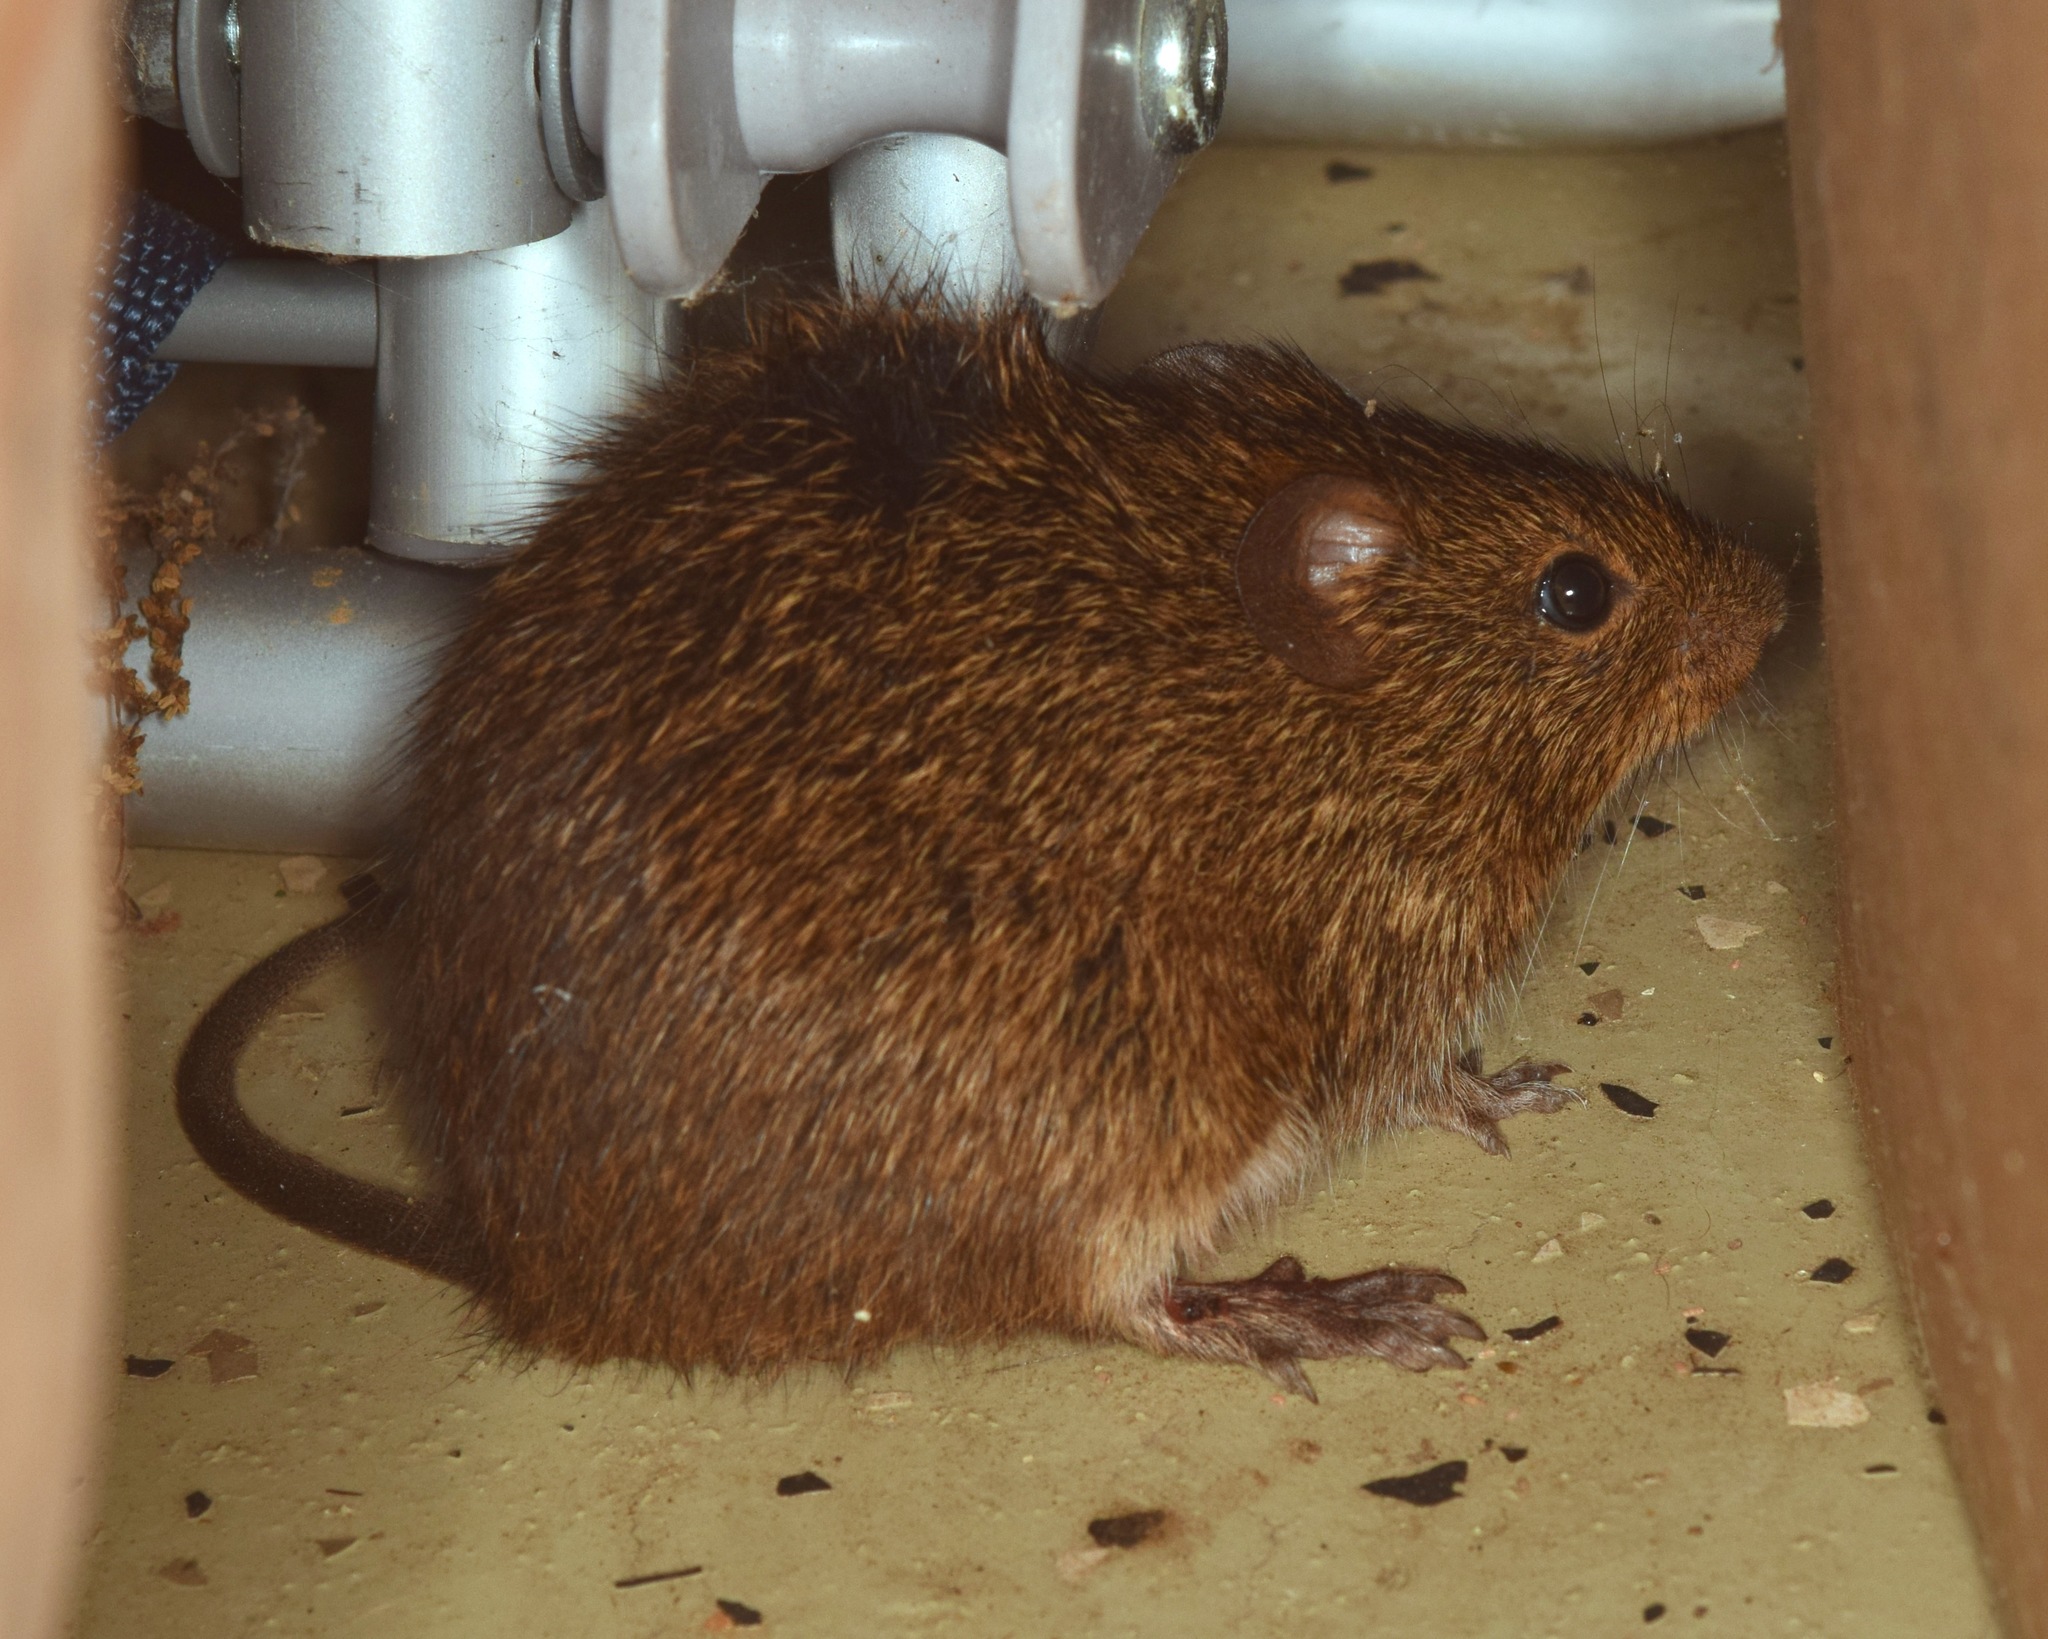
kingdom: Animalia
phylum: Chordata
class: Mammalia
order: Rodentia
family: Cricetidae
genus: Sigmodon
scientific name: Sigmodon hispidus
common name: Hispid cotton rat
